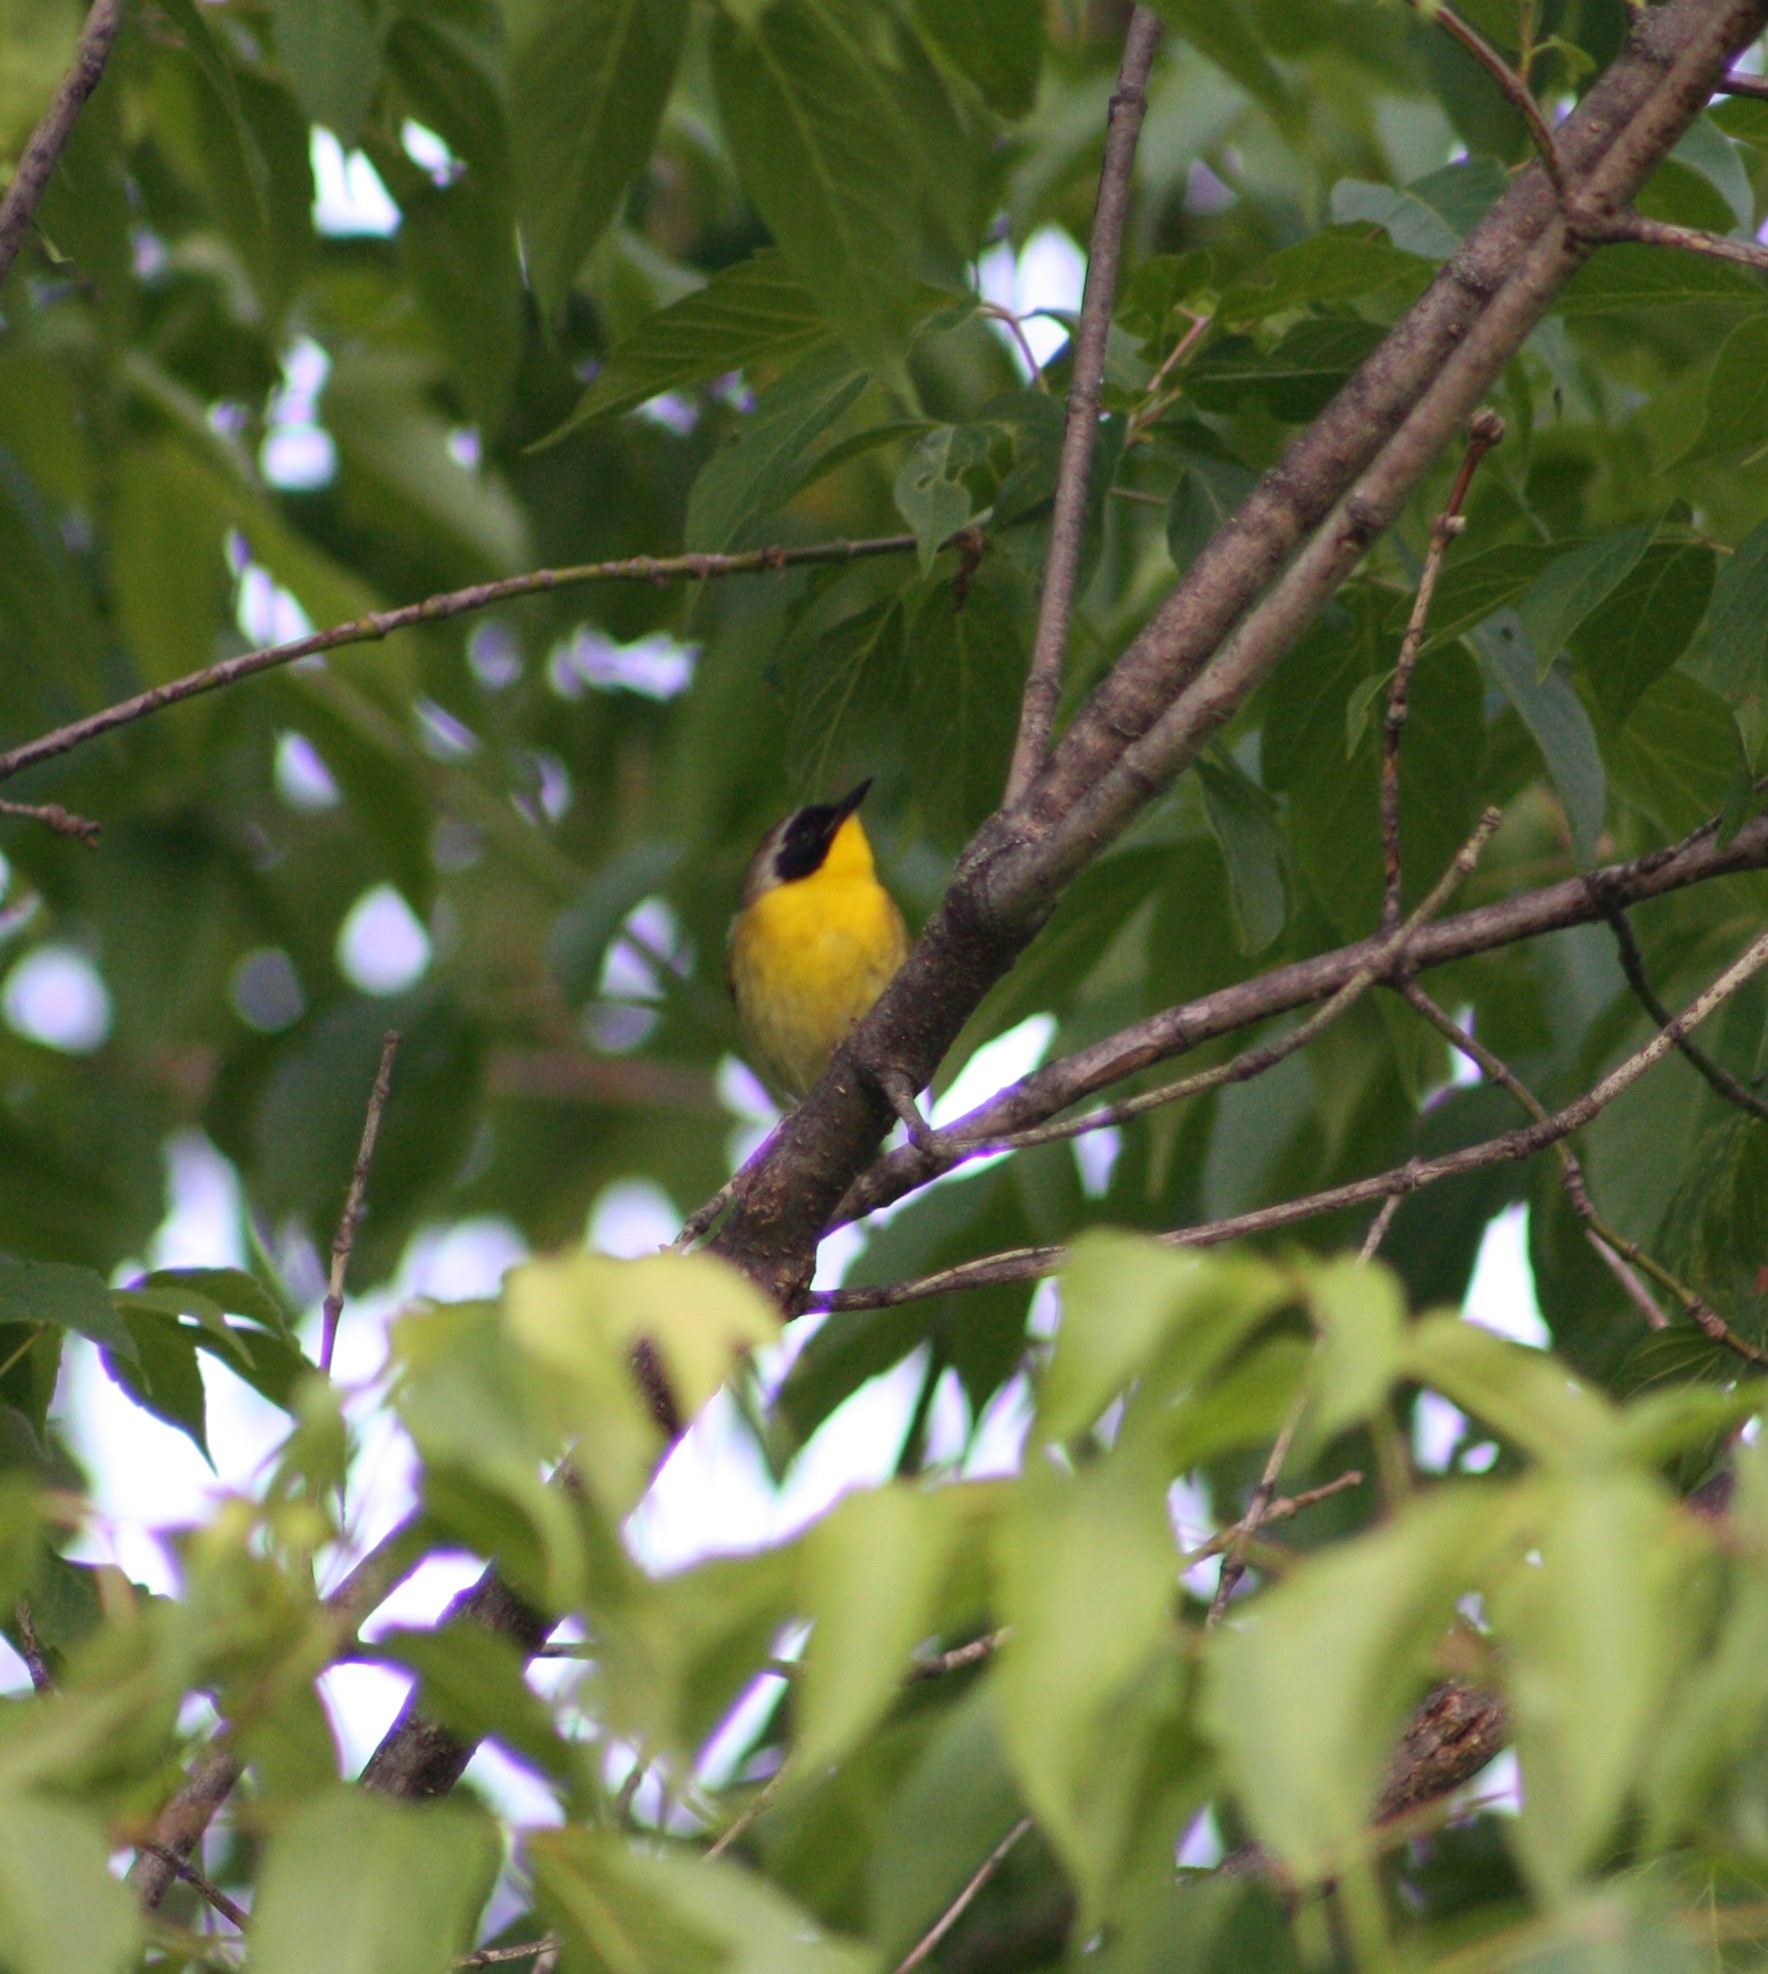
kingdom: Animalia
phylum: Chordata
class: Aves
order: Passeriformes
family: Parulidae
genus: Geothlypis
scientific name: Geothlypis trichas
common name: Common yellowthroat
